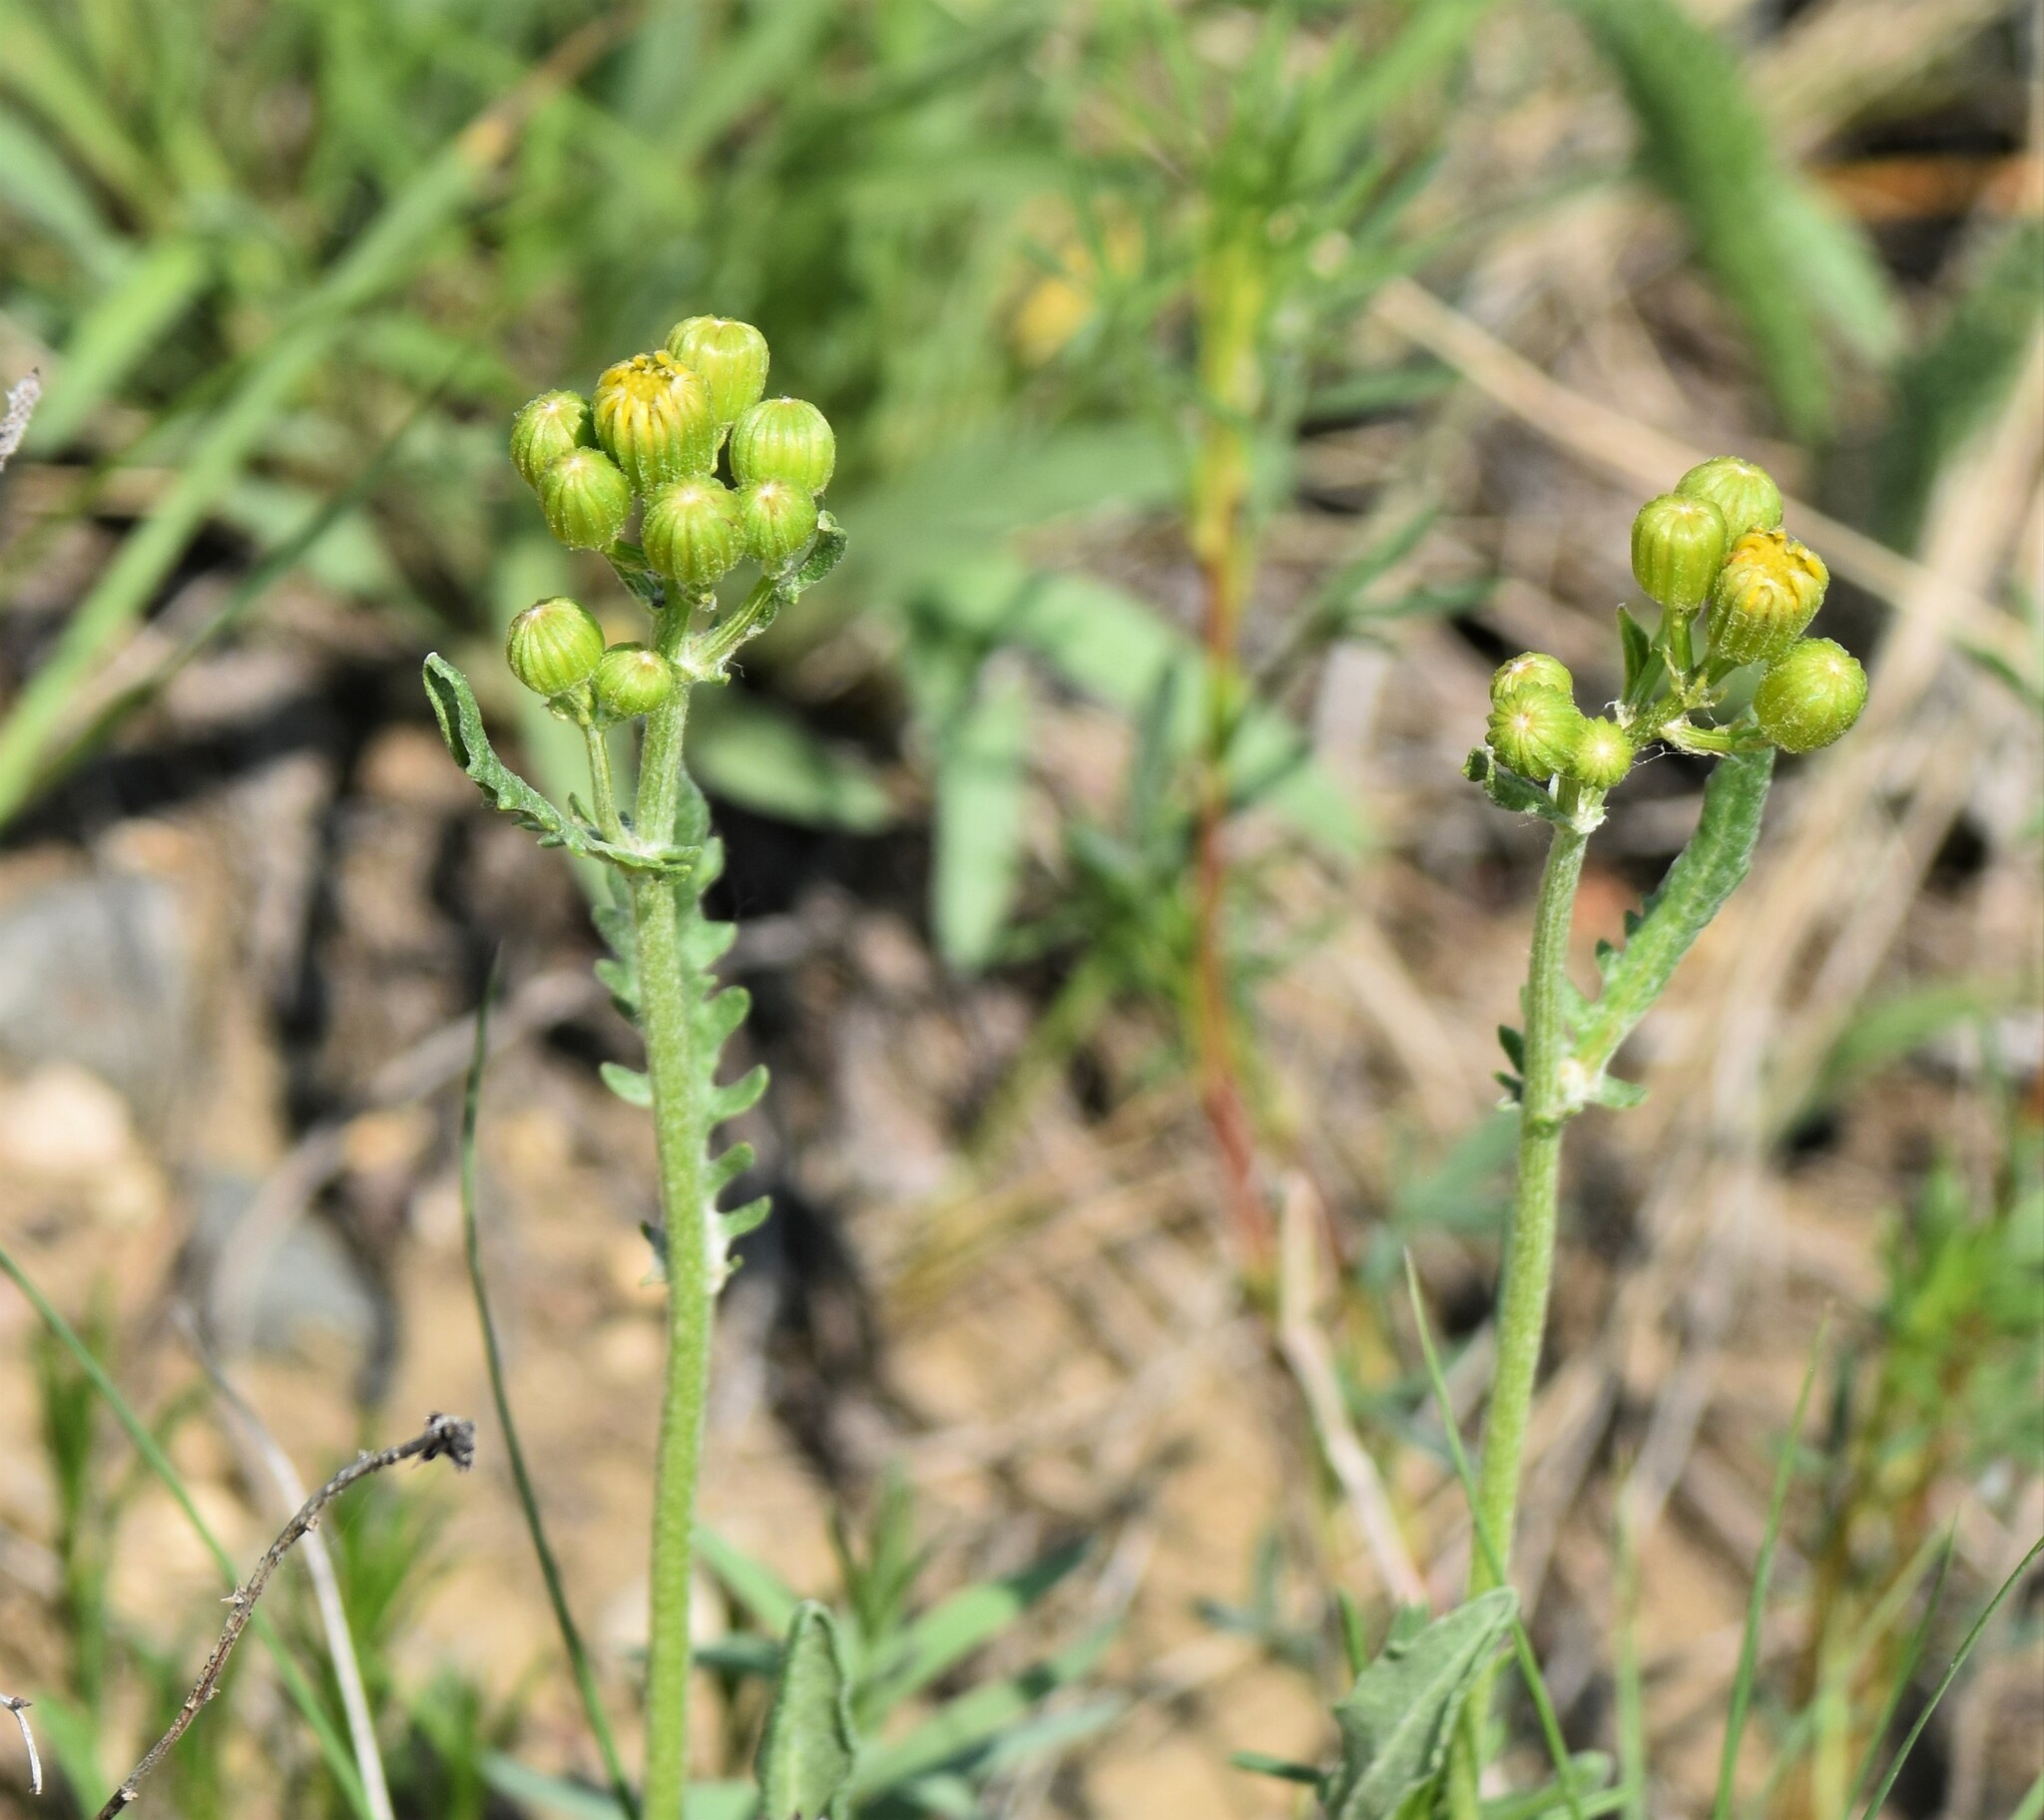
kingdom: Plantae
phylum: Tracheophyta
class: Magnoliopsida
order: Asterales
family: Asteraceae
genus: Packera
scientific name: Packera cana
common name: Woolly groundsel
